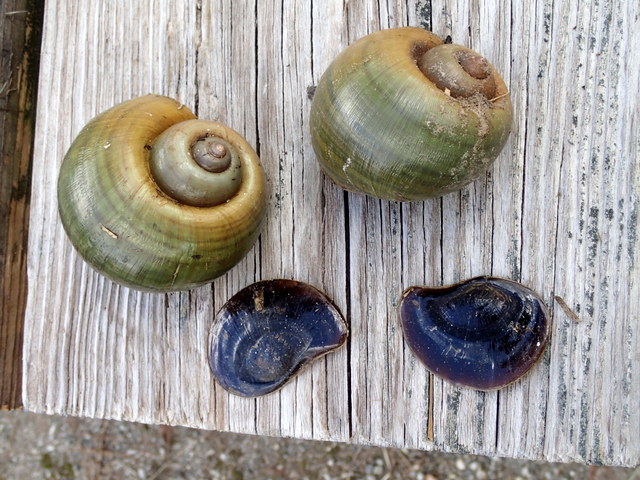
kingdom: Animalia
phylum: Mollusca
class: Gastropoda
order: Architaenioglossa
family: Ampullariidae
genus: Pomacea
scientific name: Pomacea maculata
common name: Giant applesnail
